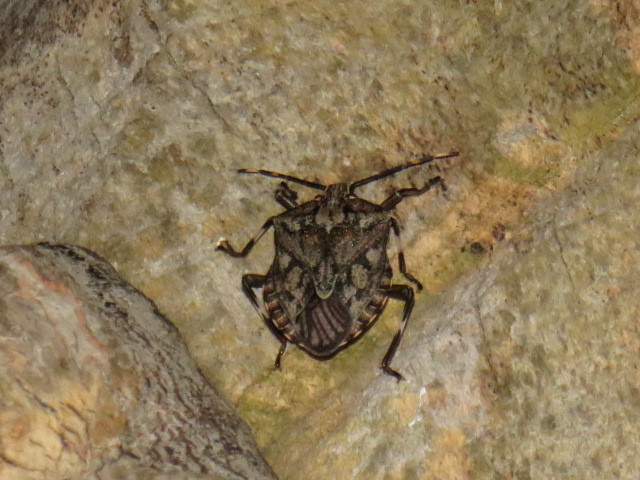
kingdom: Animalia
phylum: Arthropoda
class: Insecta
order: Hemiptera
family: Pentatomidae
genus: Coenomorpha
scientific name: Coenomorpha nervosa
